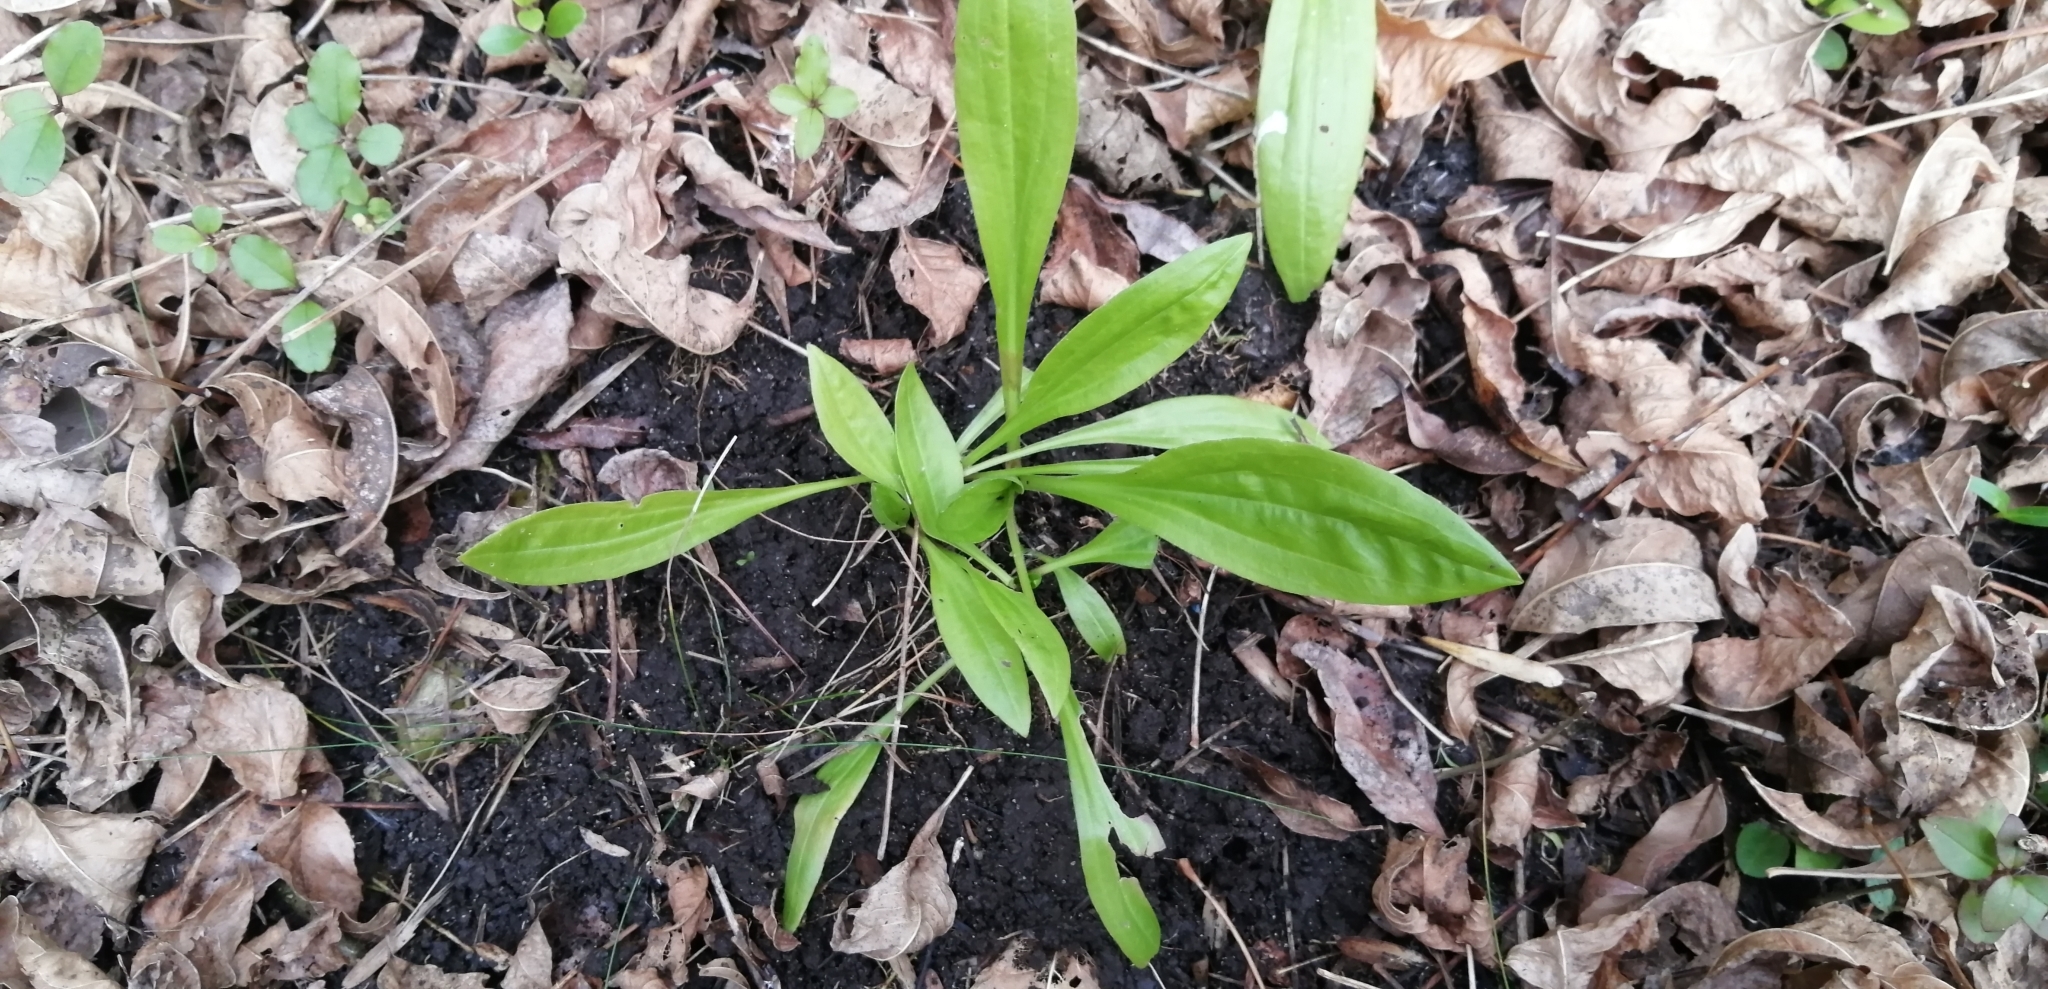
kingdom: Plantae
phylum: Tracheophyta
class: Magnoliopsida
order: Lamiales
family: Plantaginaceae
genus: Plantago
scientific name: Plantago australis
